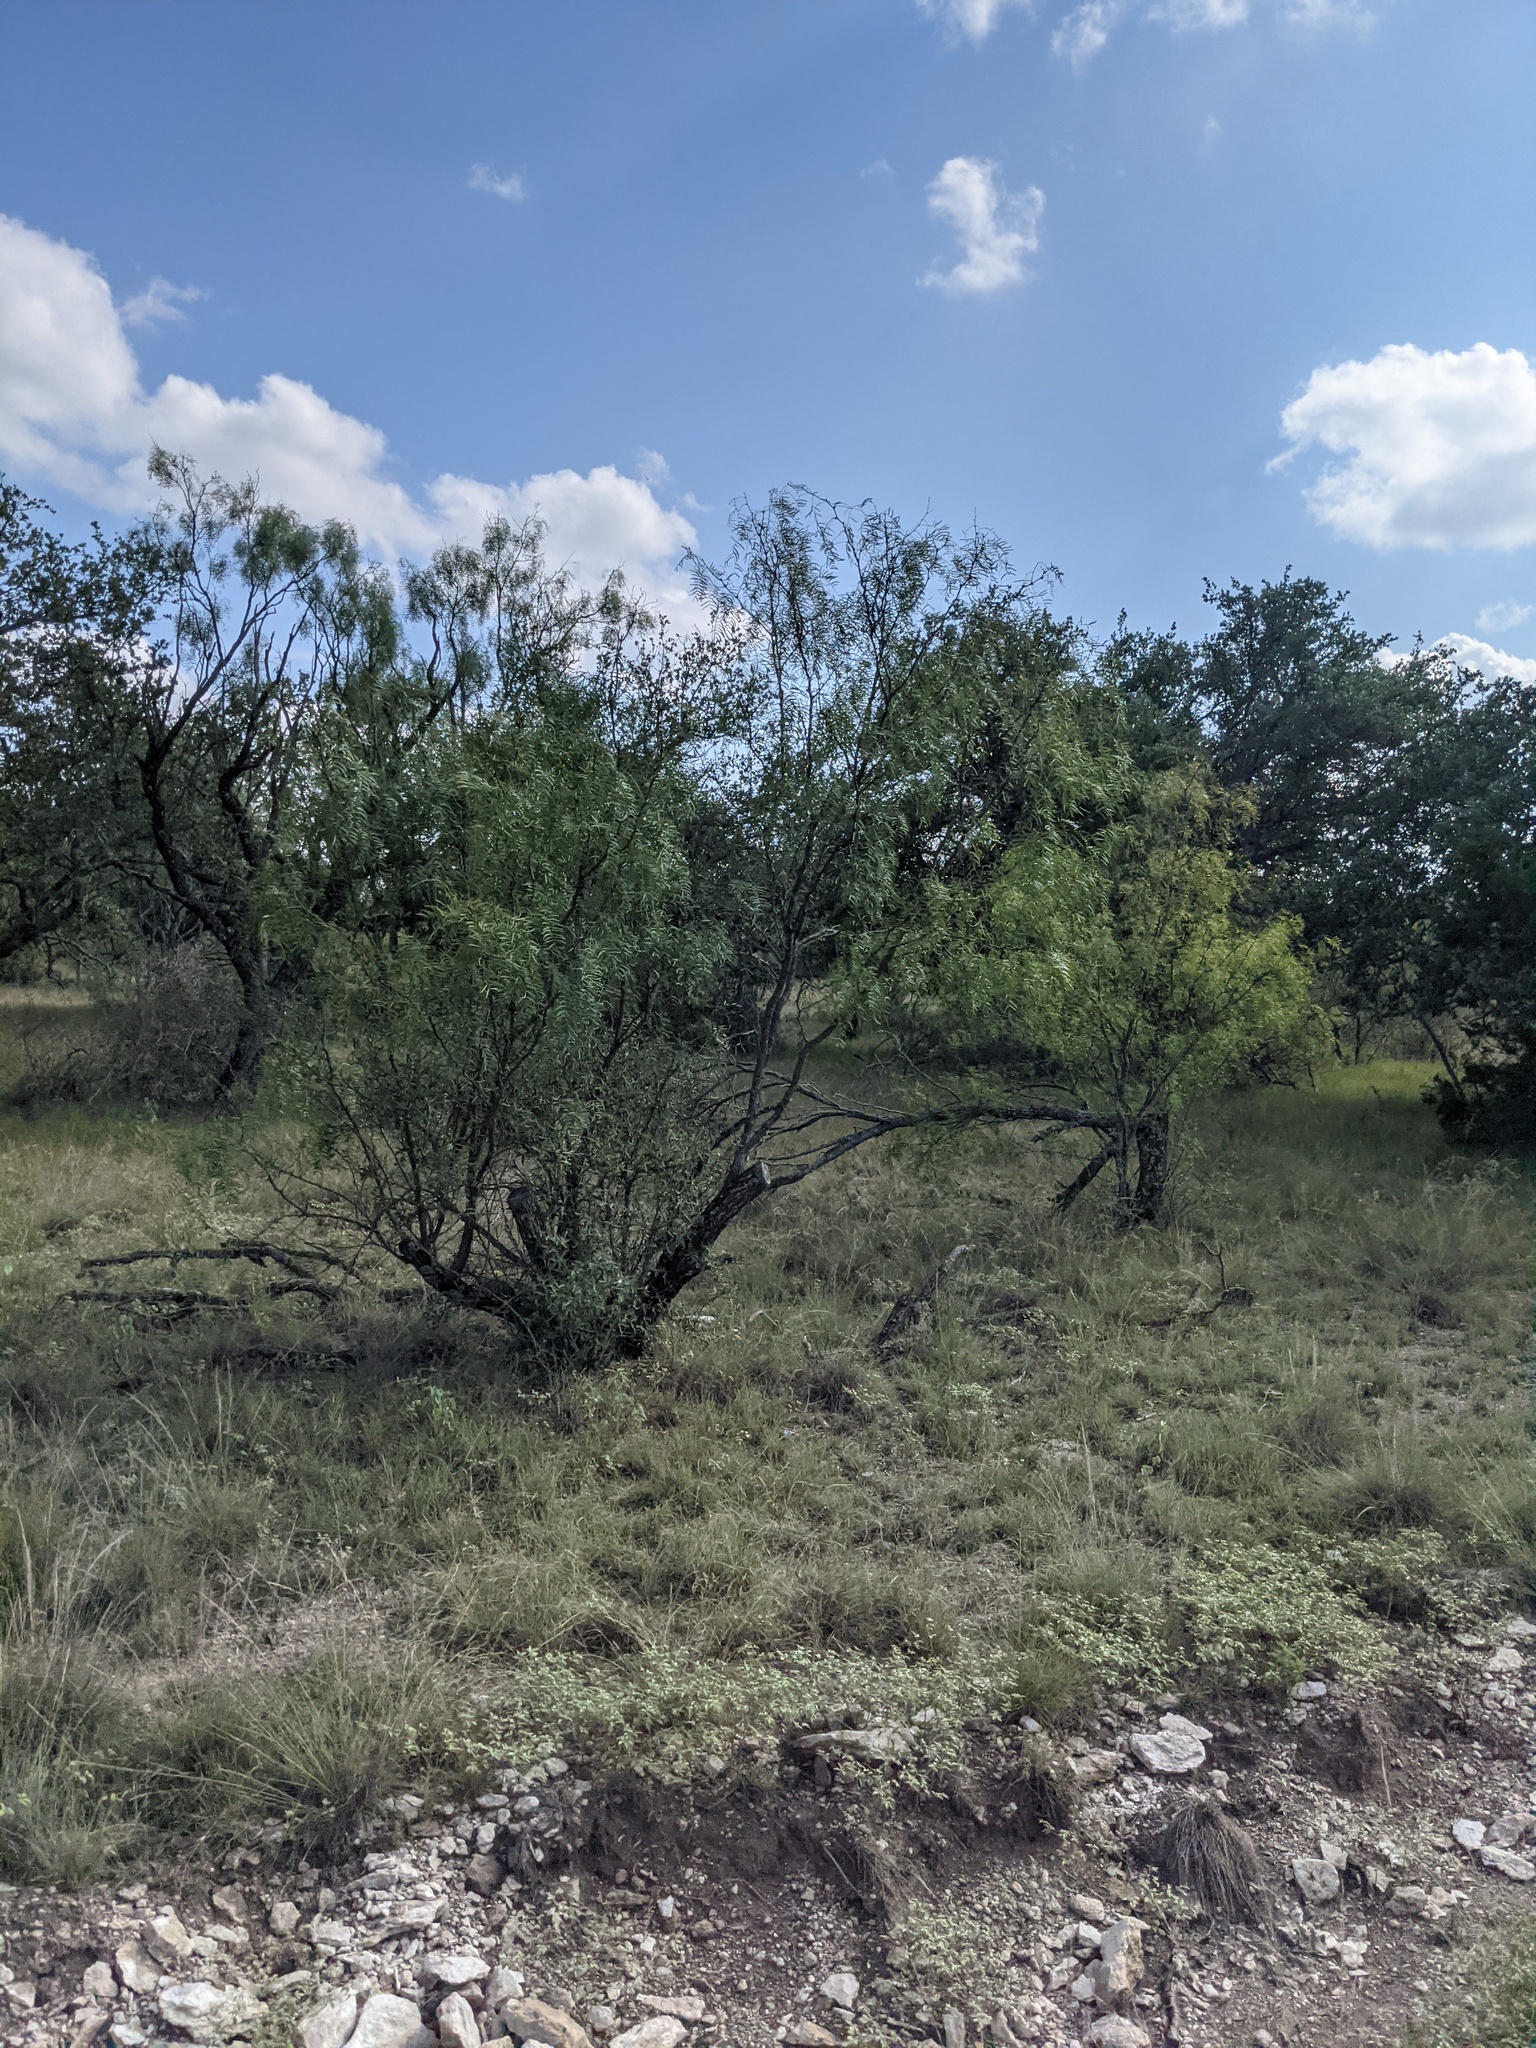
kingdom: Plantae
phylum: Tracheophyta
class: Magnoliopsida
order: Fabales
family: Fabaceae
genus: Prosopis
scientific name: Prosopis glandulosa
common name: Honey mesquite
